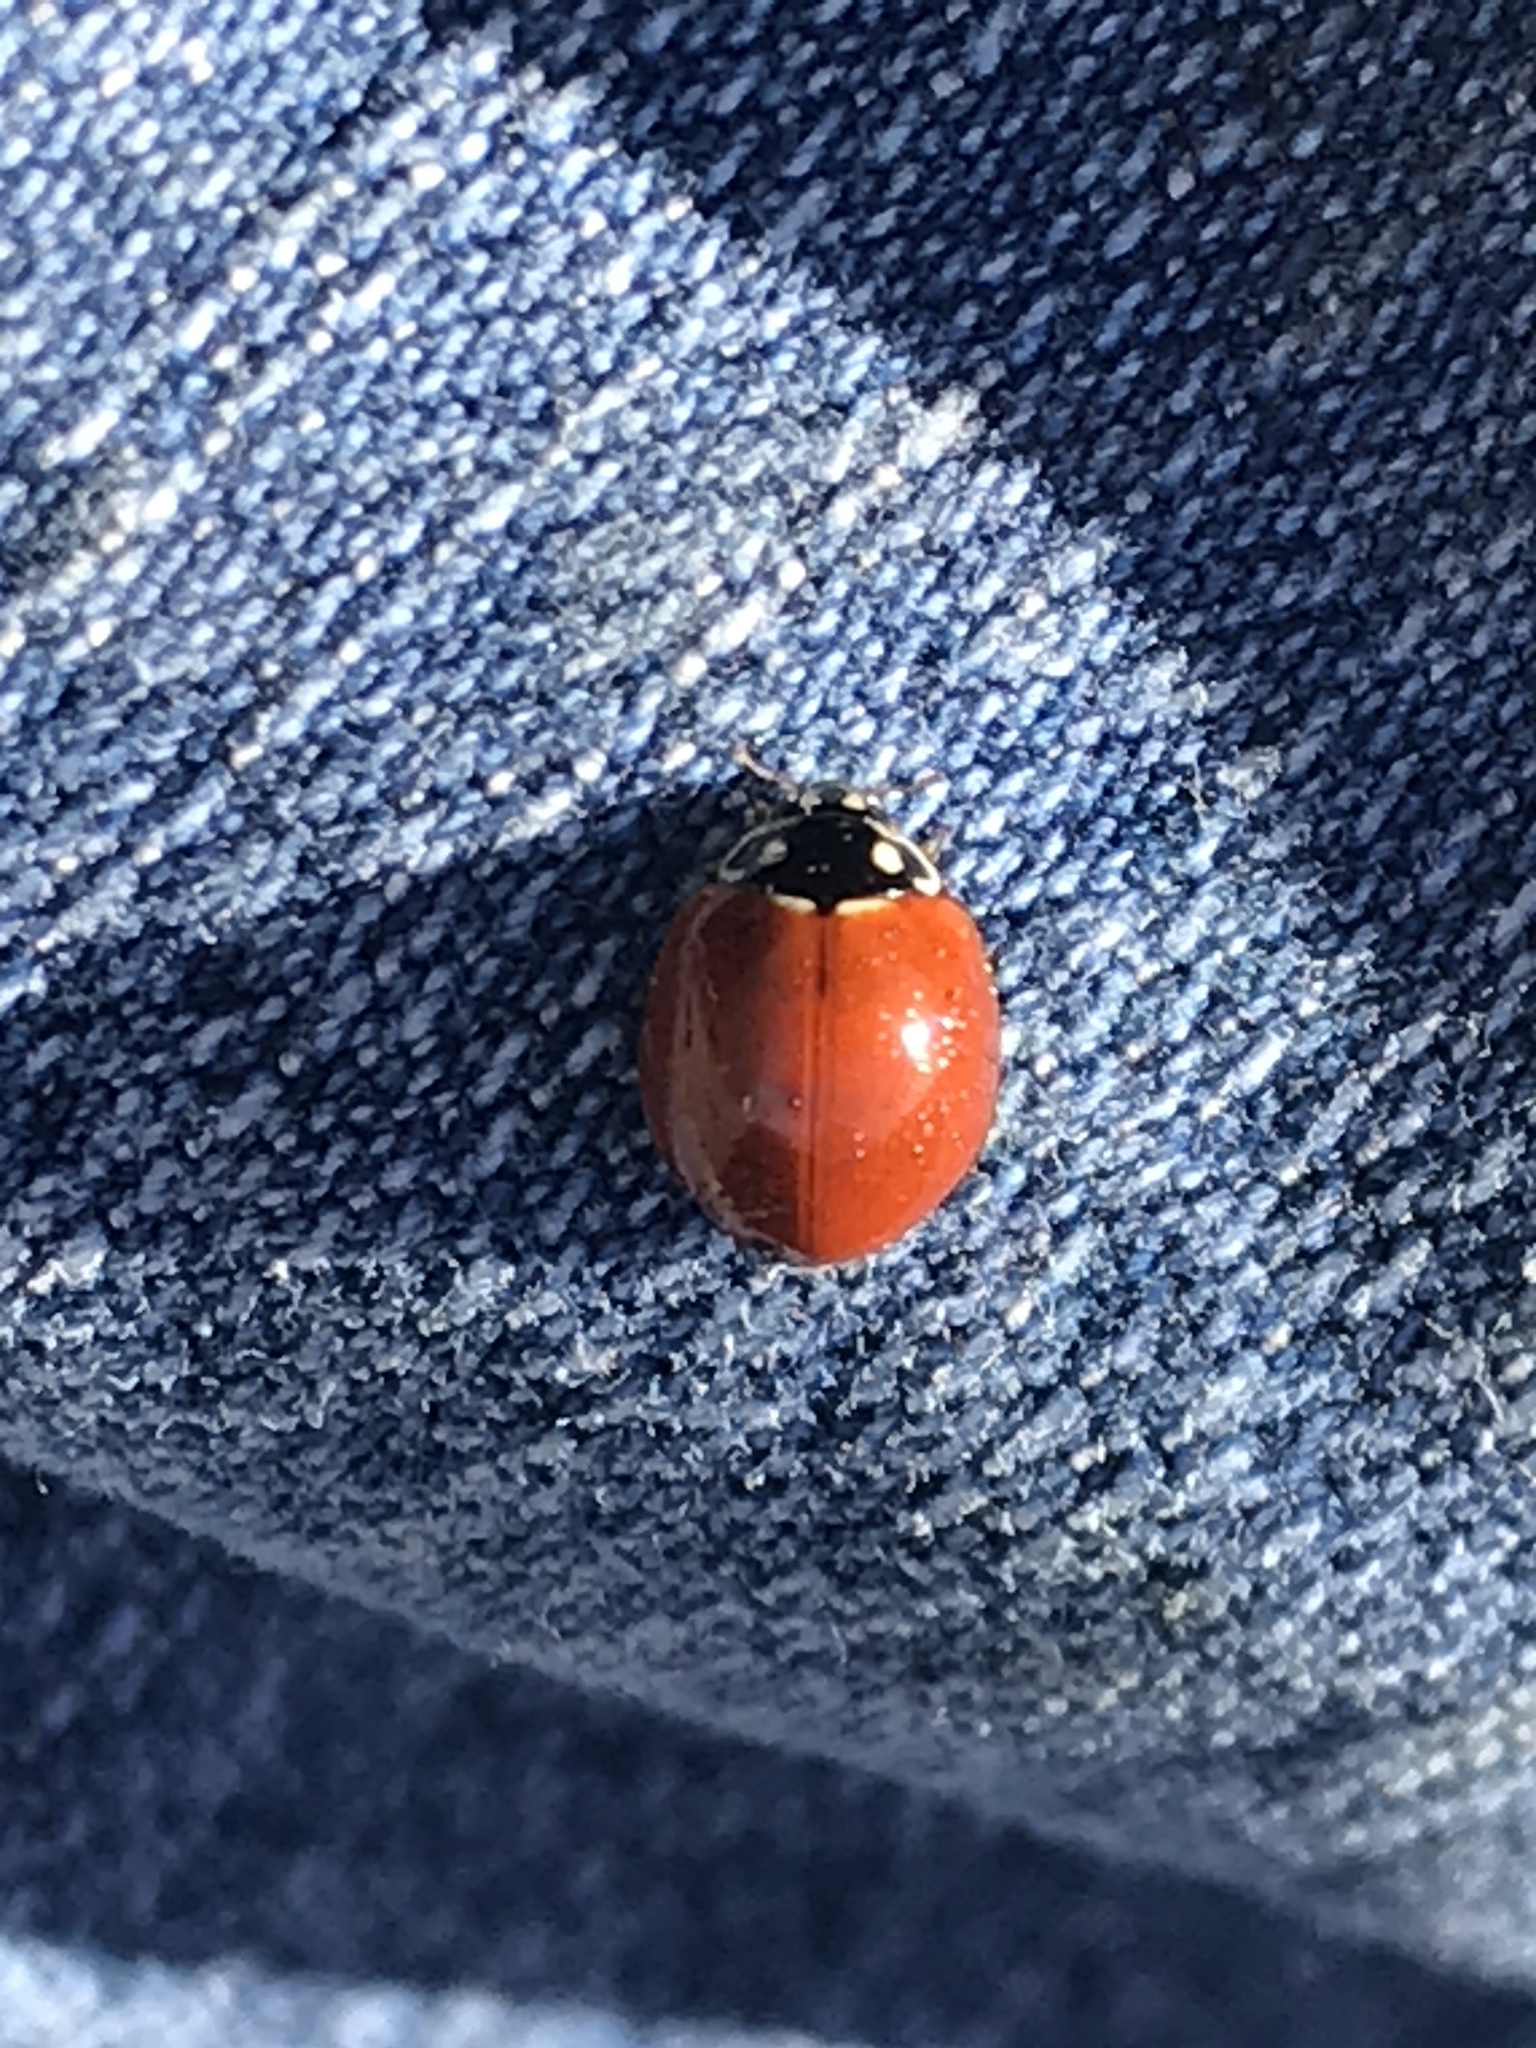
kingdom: Animalia
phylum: Arthropoda
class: Insecta
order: Coleoptera
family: Coccinellidae
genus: Cycloneda
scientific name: Cycloneda sanguinea
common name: Ladybird beetle
